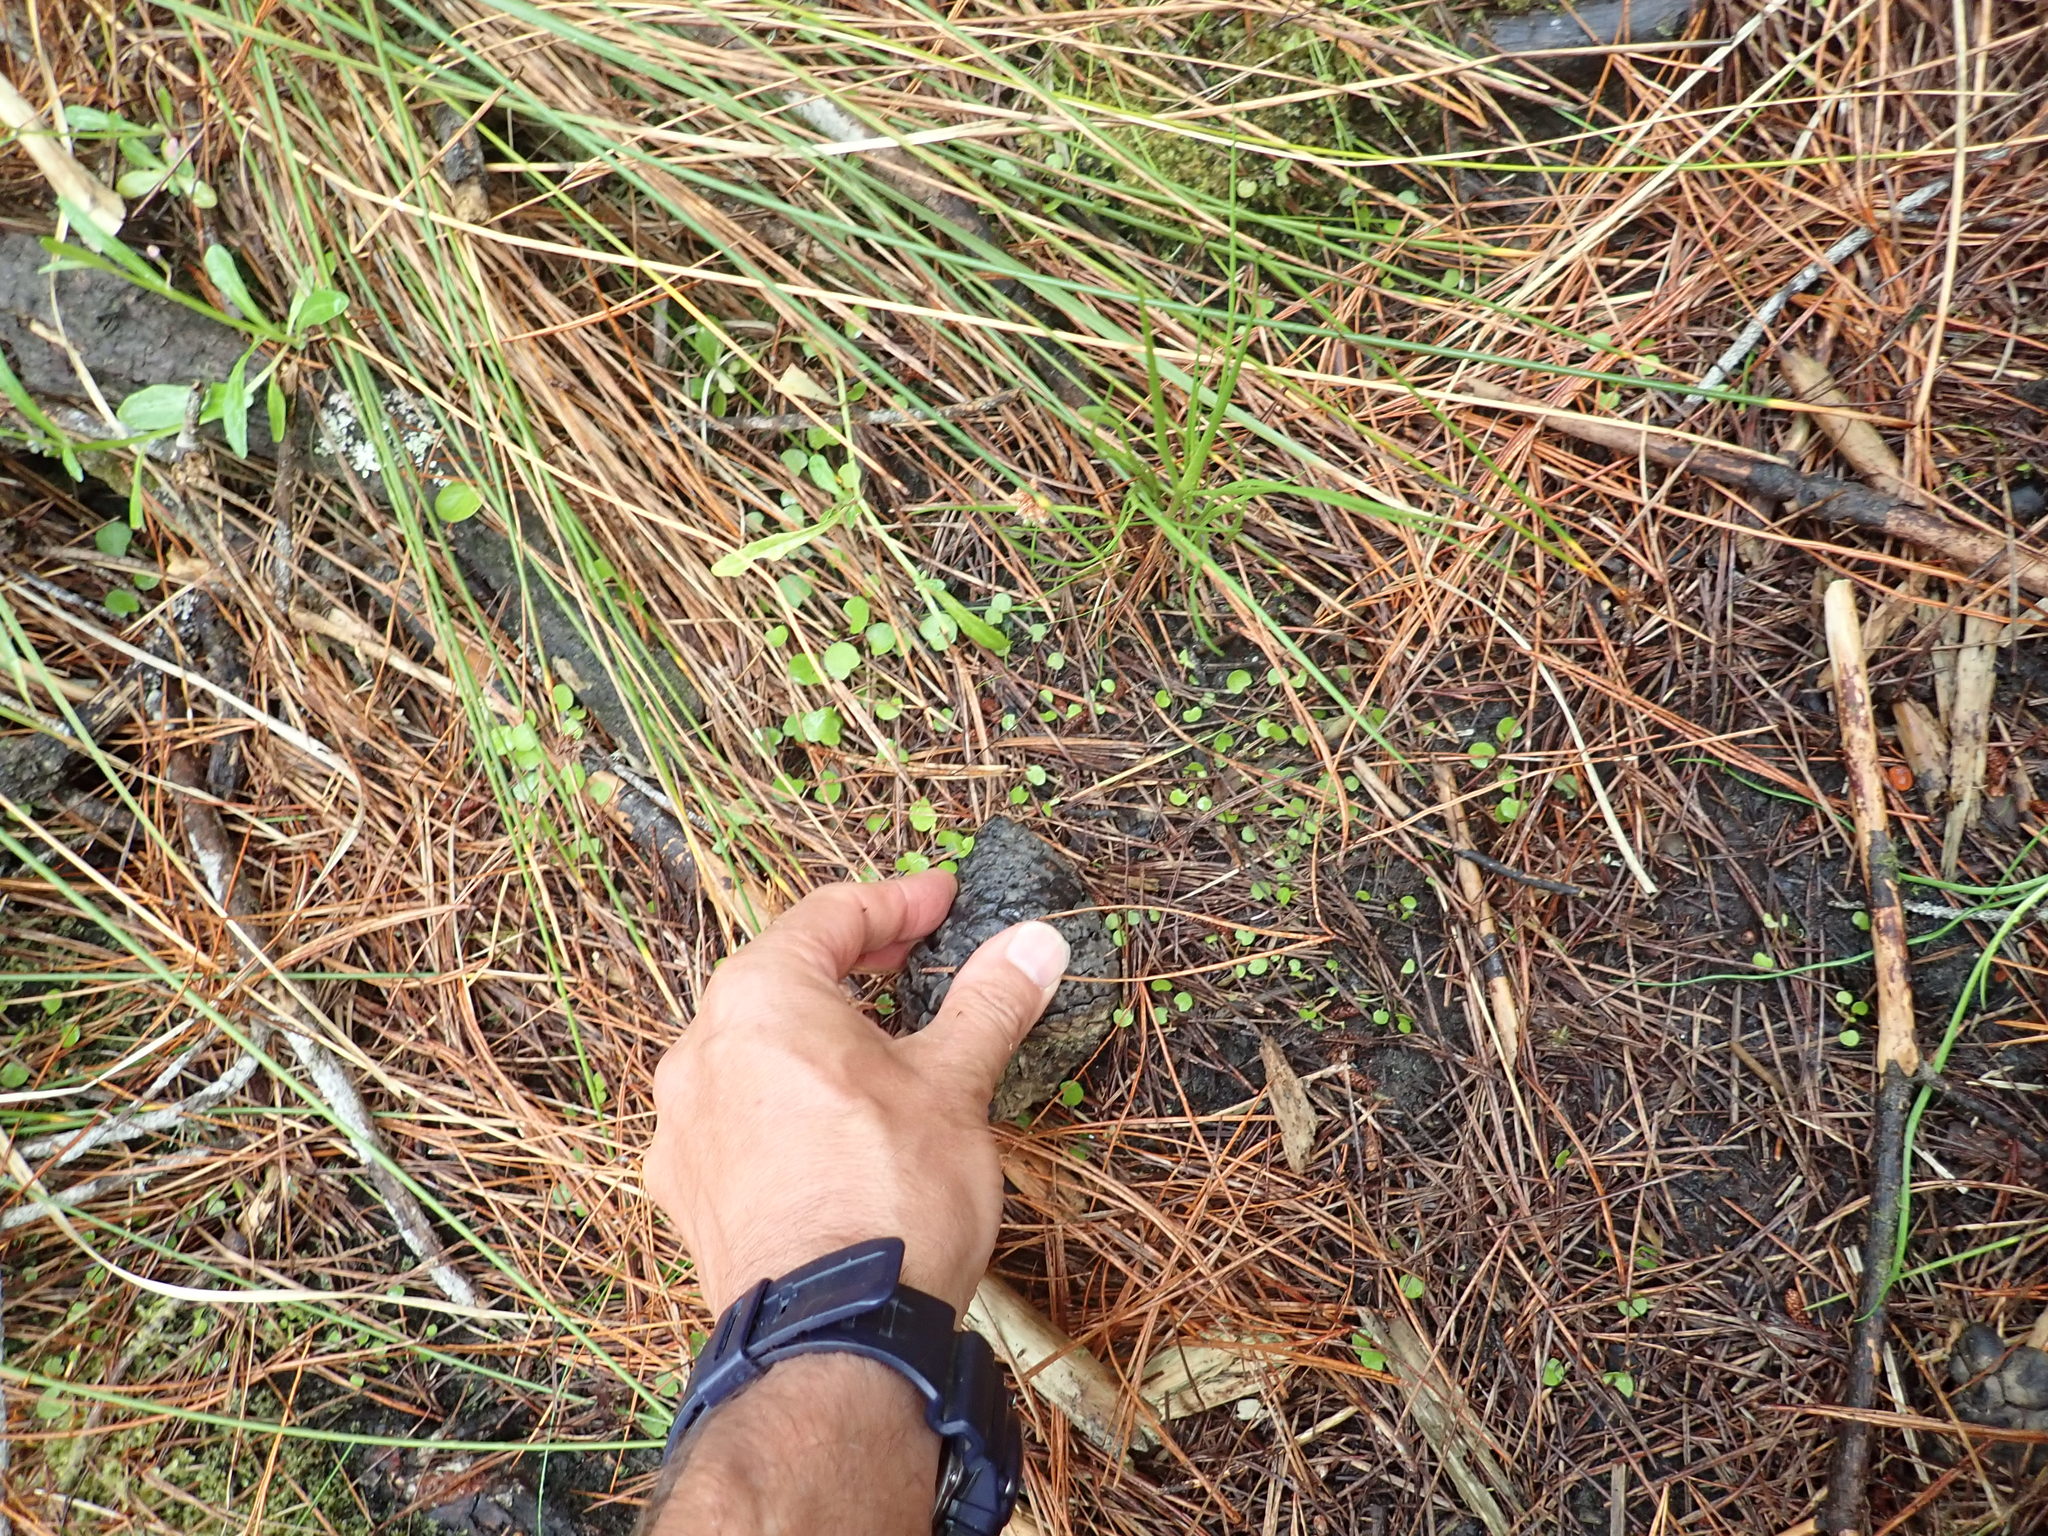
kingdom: Plantae
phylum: Tracheophyta
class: Magnoliopsida
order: Apiales
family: Apiaceae
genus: Centella
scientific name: Centella uniflora
